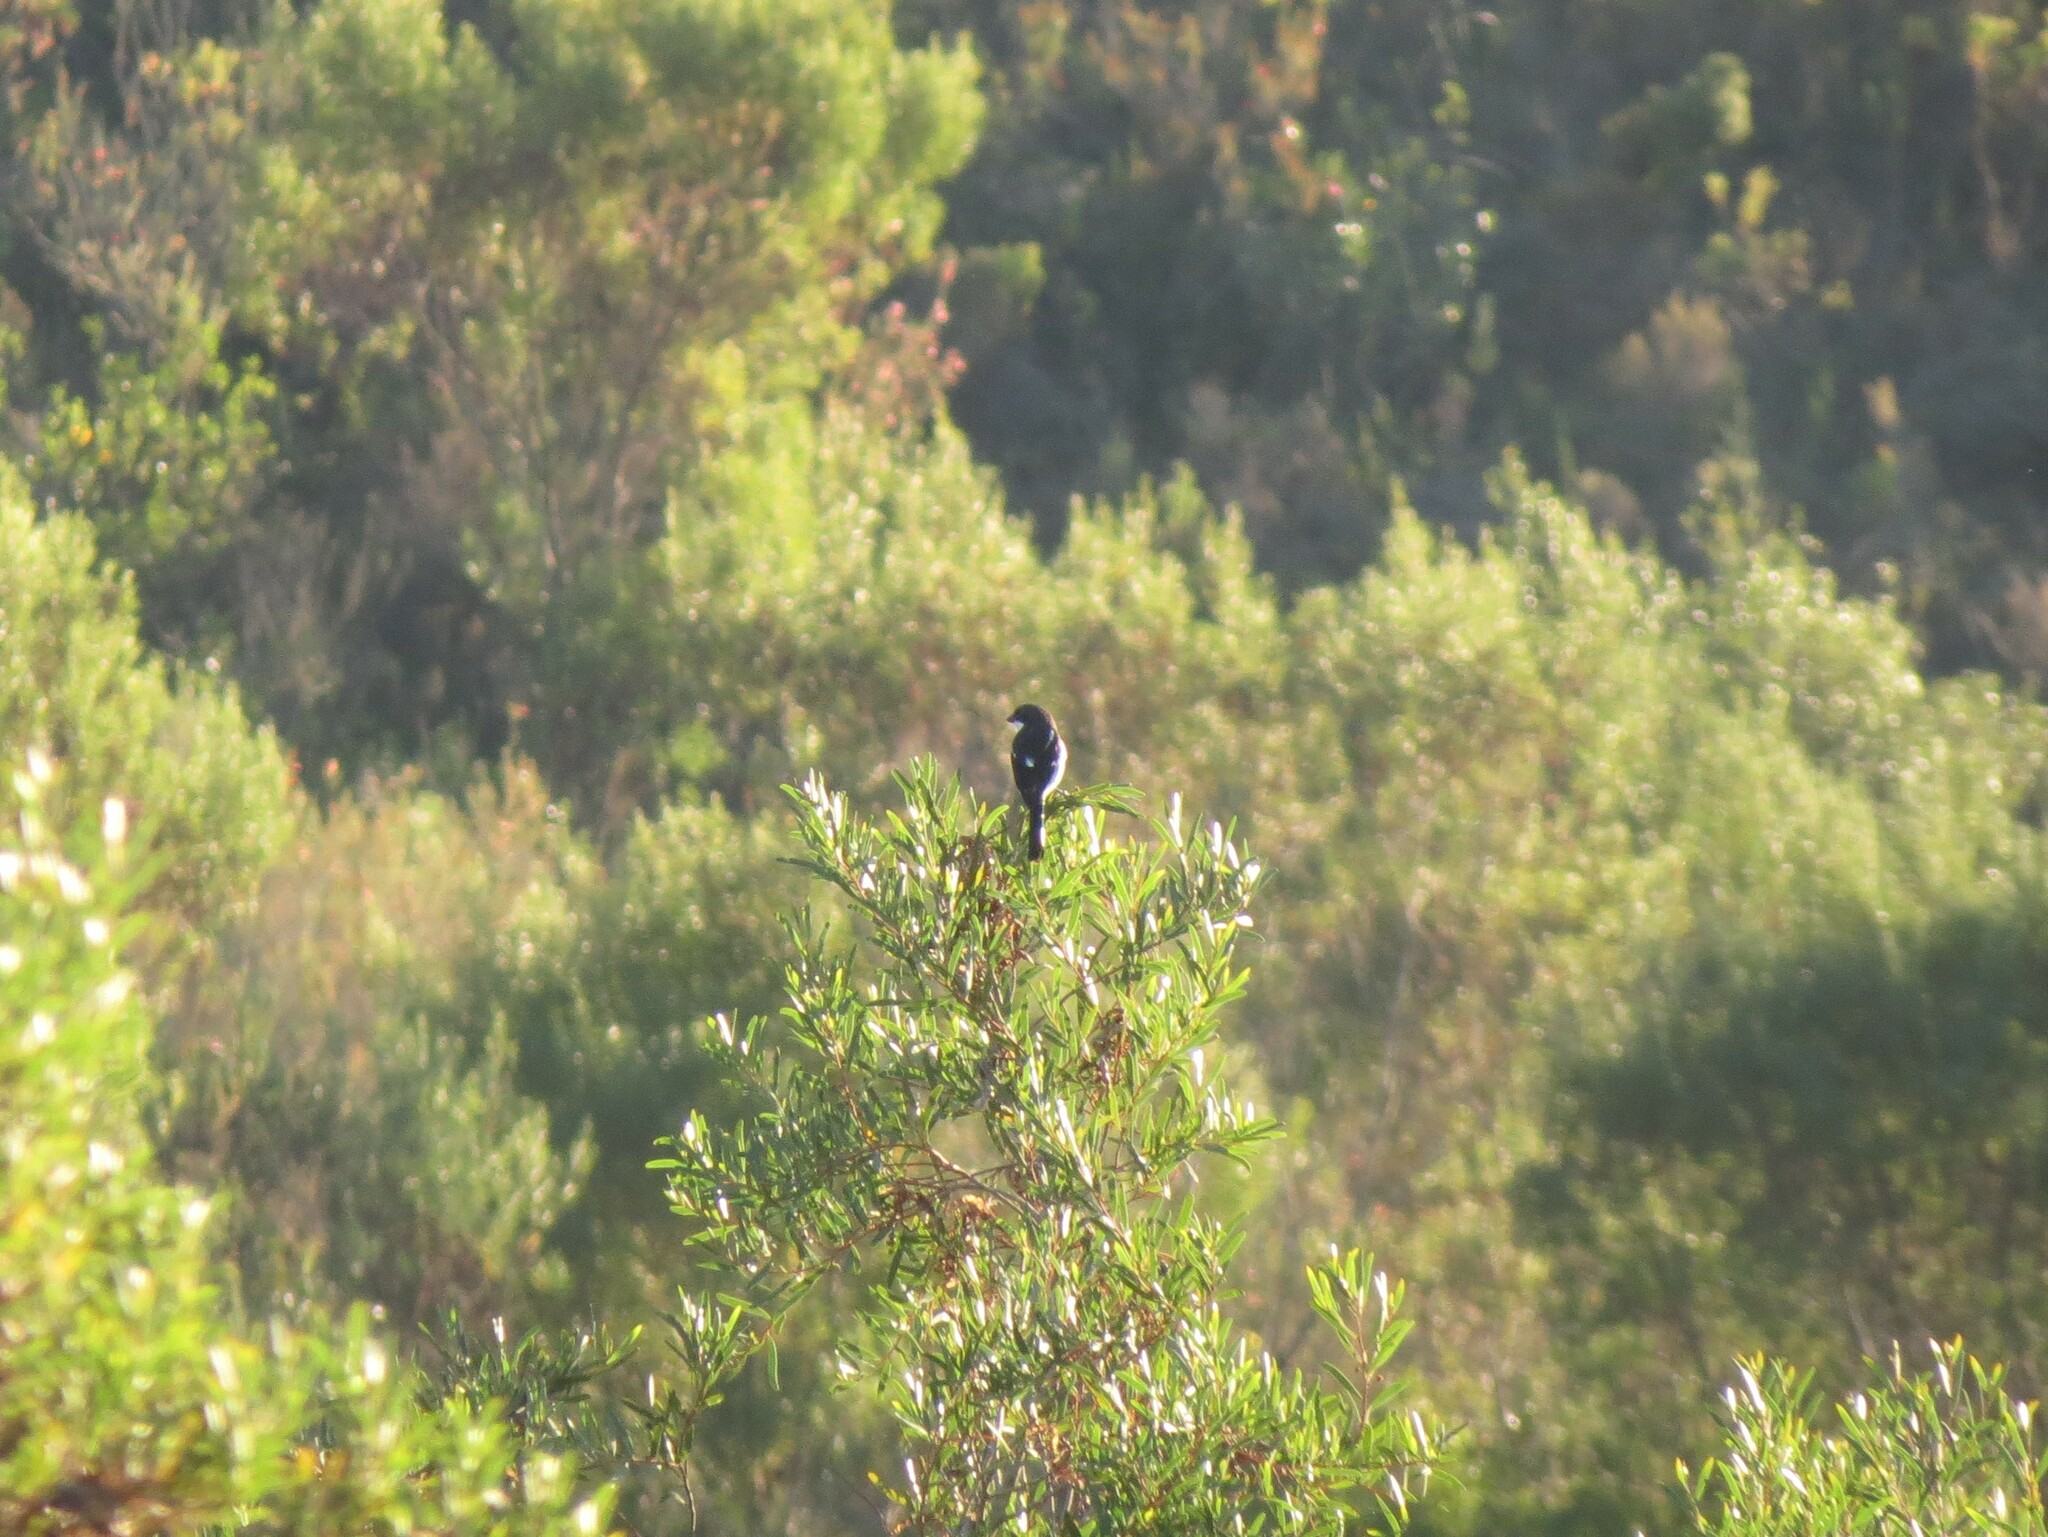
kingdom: Animalia
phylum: Chordata
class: Aves
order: Passeriformes
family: Laniidae
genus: Lanius
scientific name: Lanius collaris
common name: Southern fiscal
